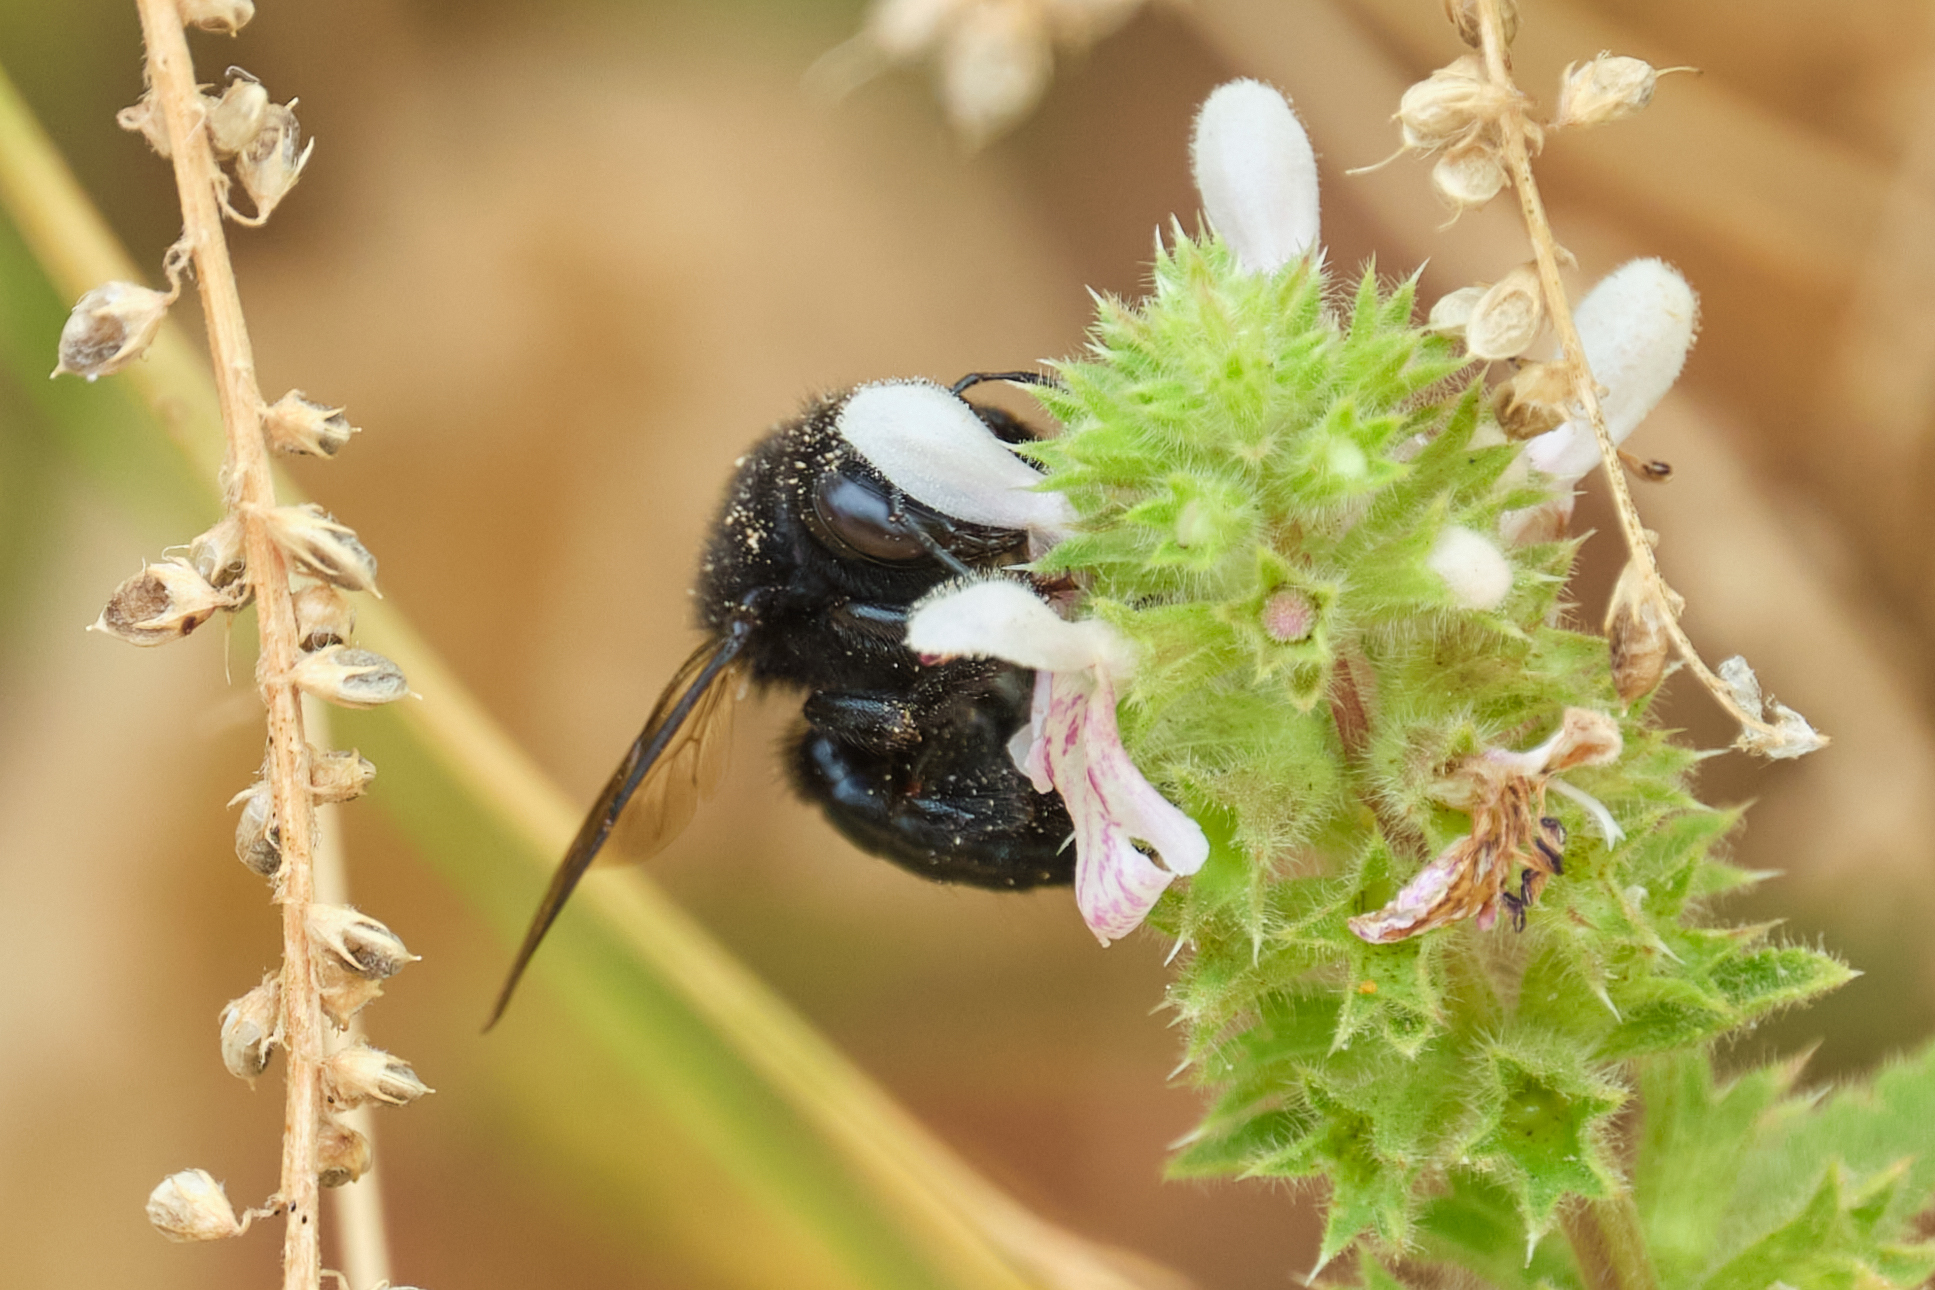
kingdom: Animalia
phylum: Arthropoda
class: Insecta
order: Hymenoptera
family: Apidae
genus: Xylocopa
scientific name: Xylocopa tabaniformis
